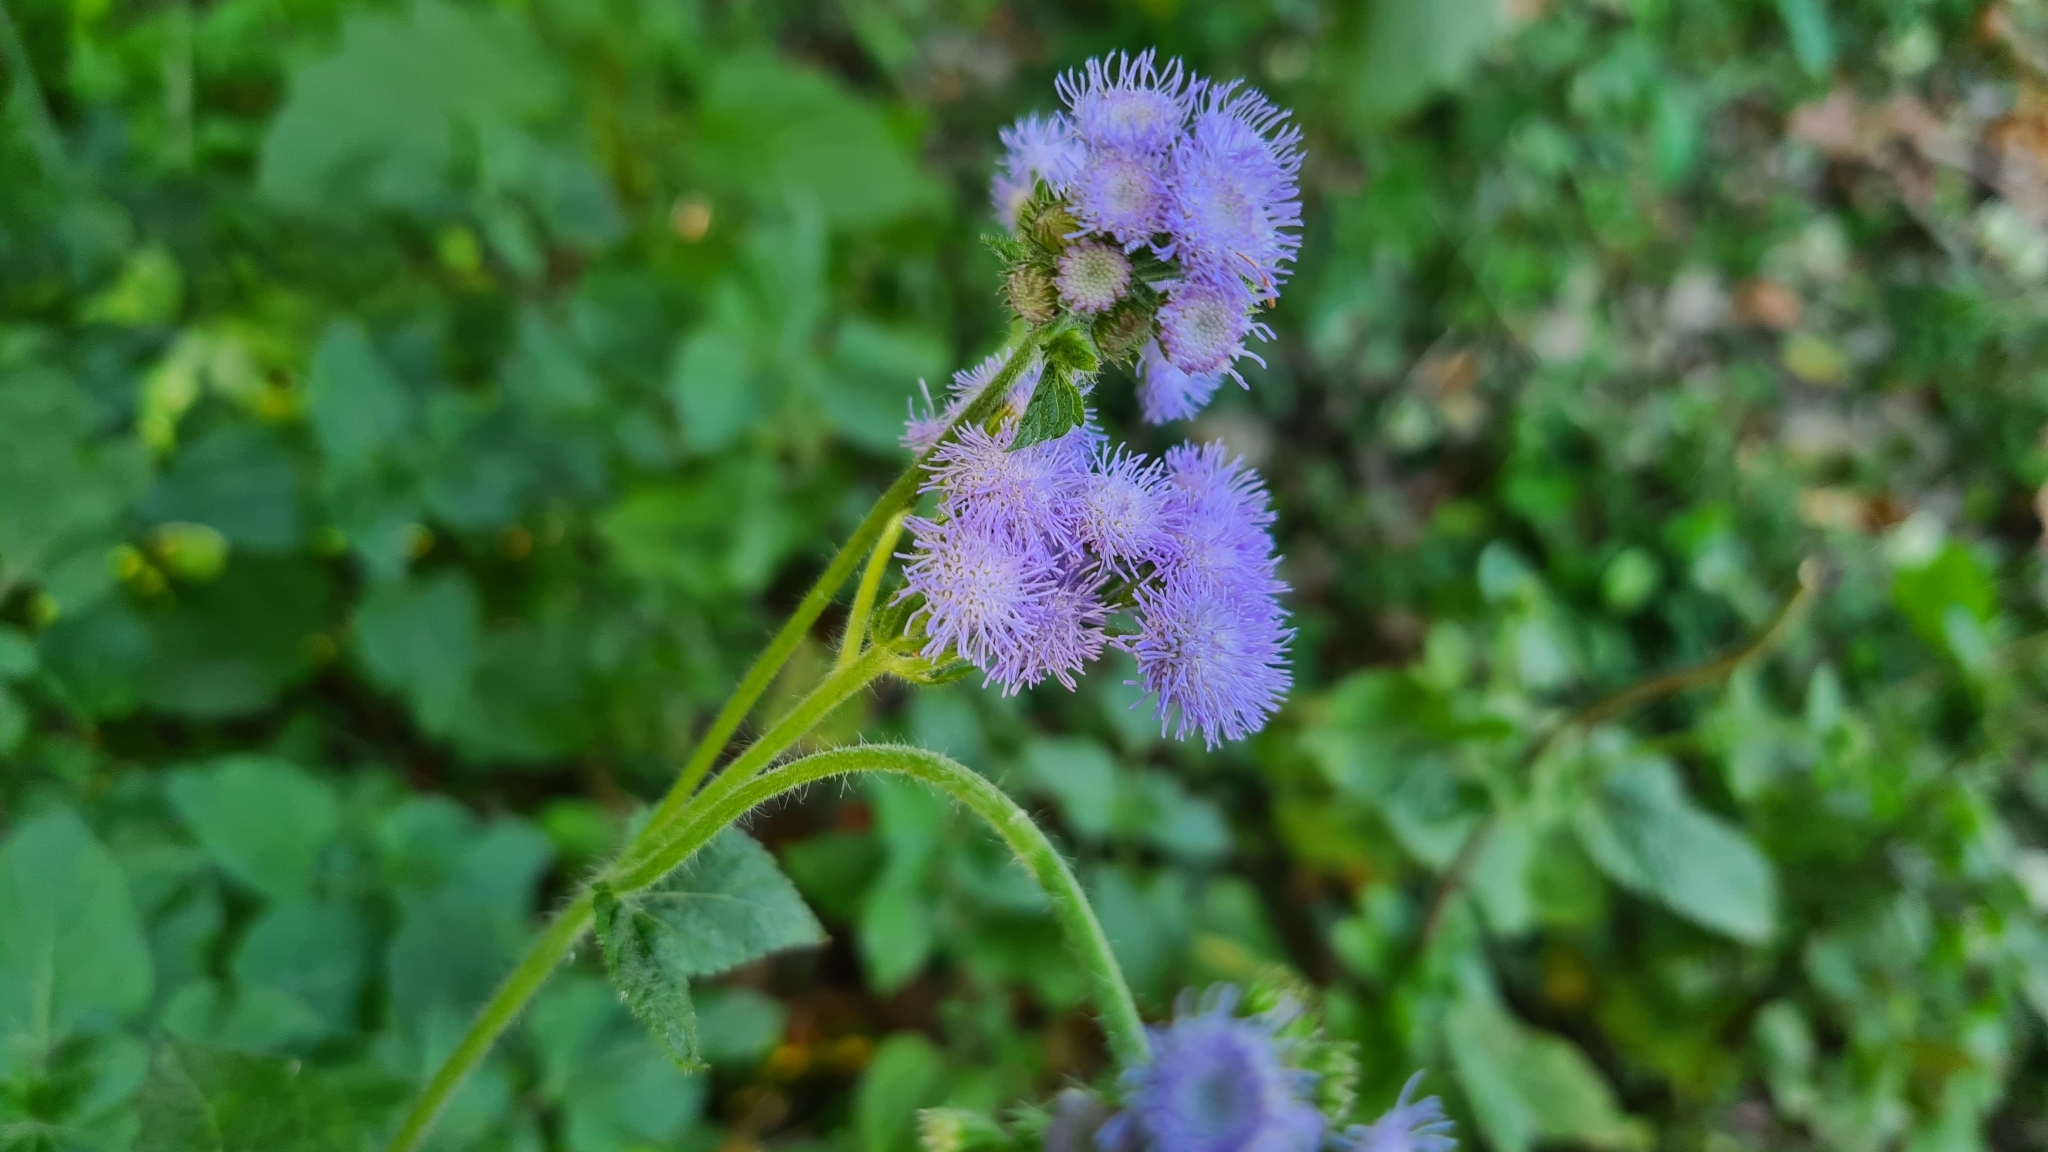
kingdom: Plantae
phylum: Tracheophyta
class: Magnoliopsida
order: Asterales
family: Asteraceae
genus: Ageratum
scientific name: Ageratum houstonianum
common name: Bluemink
